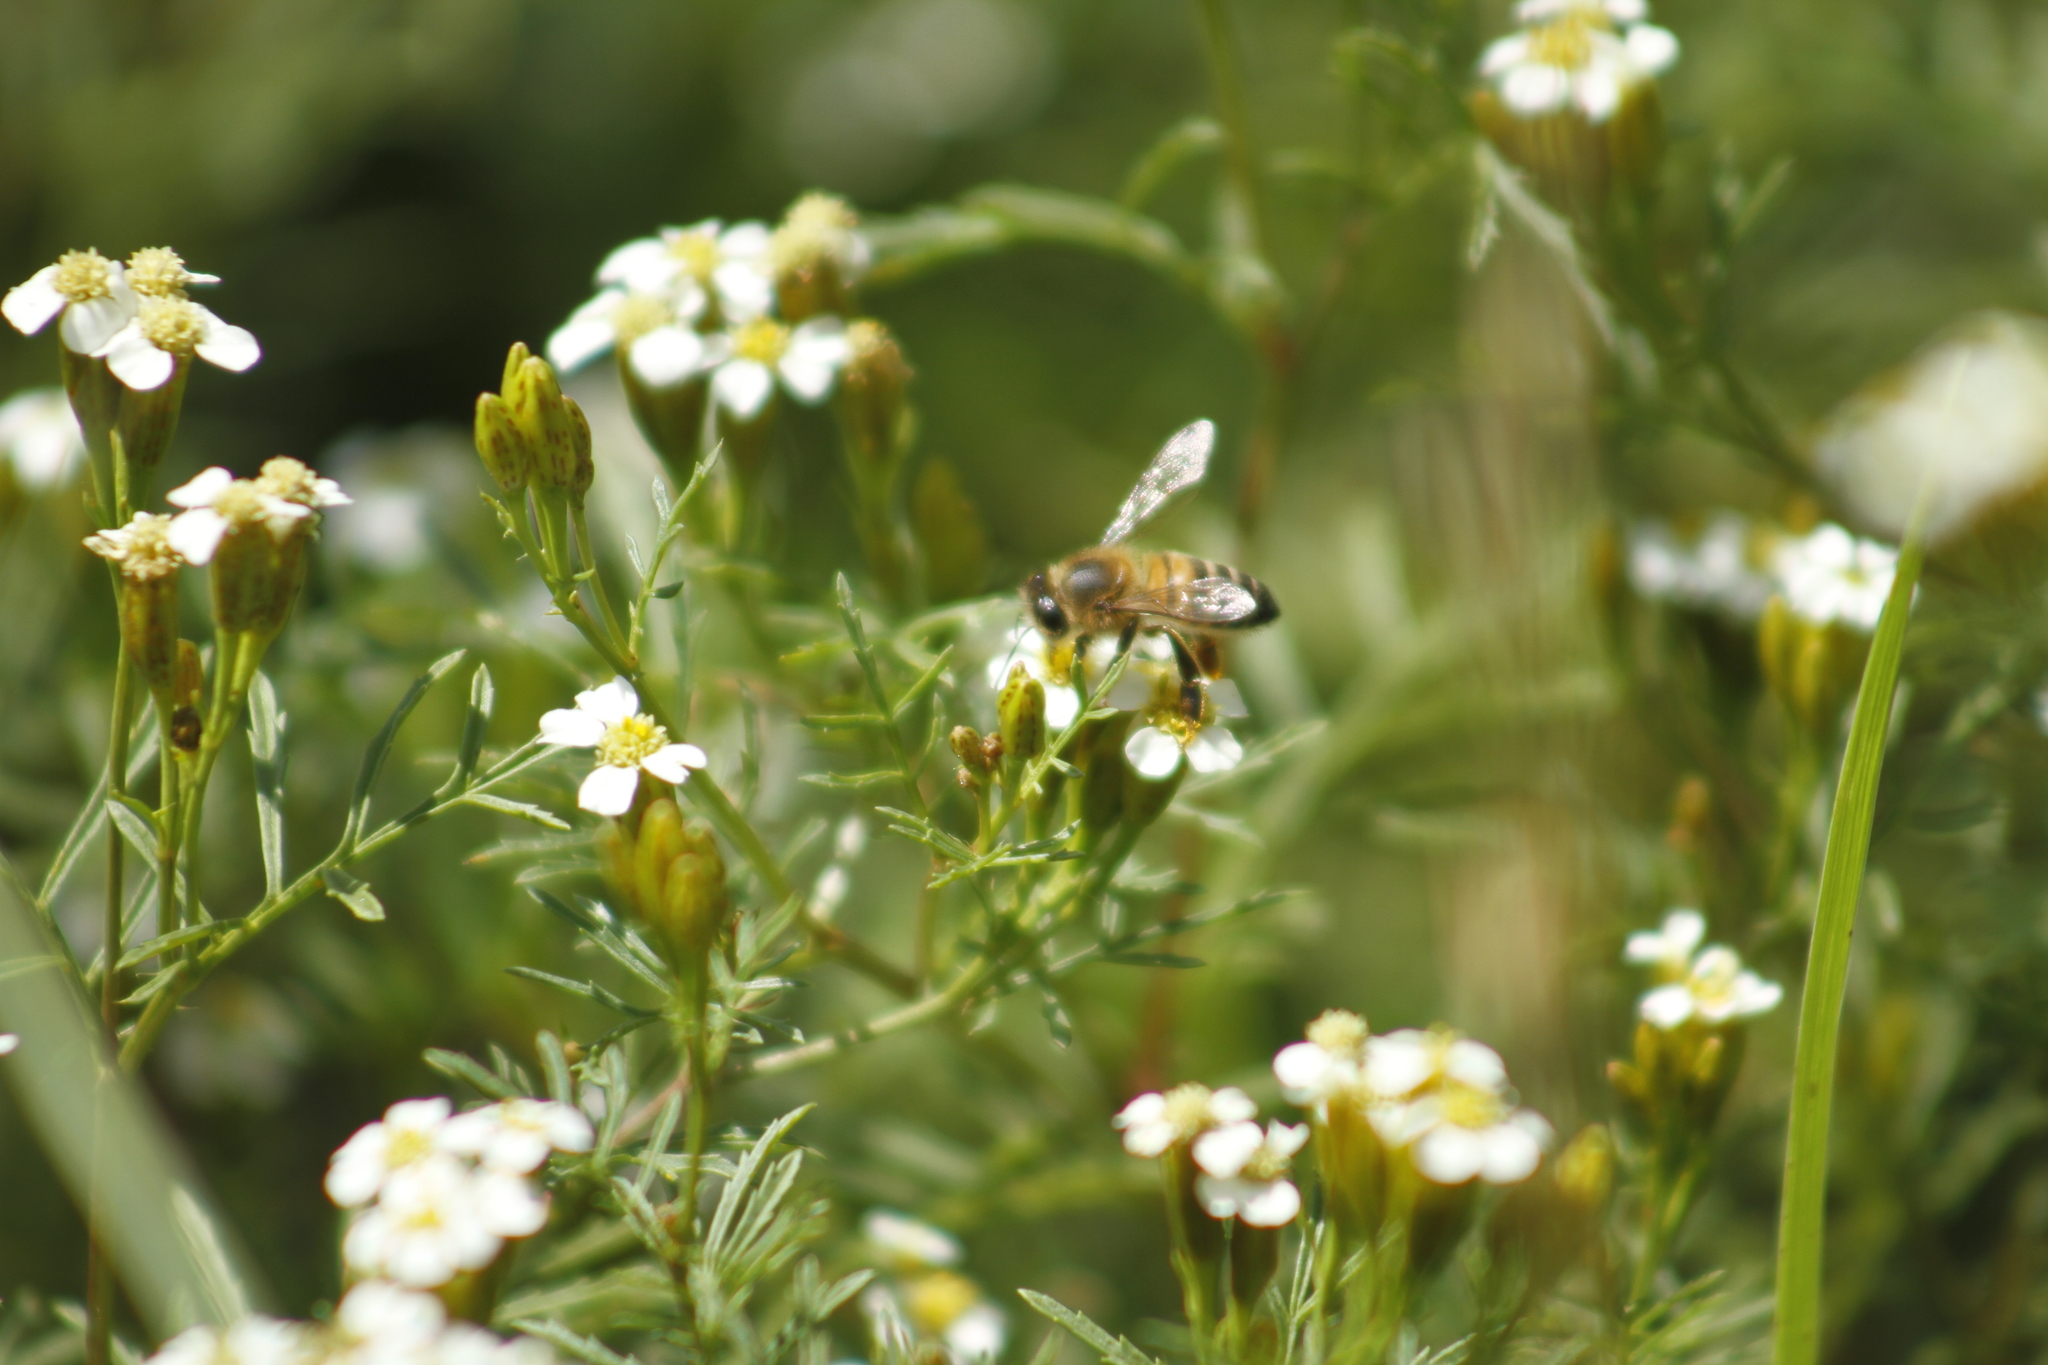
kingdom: Animalia
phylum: Arthropoda
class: Insecta
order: Hymenoptera
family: Apidae
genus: Apis
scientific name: Apis mellifera
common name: Honey bee
